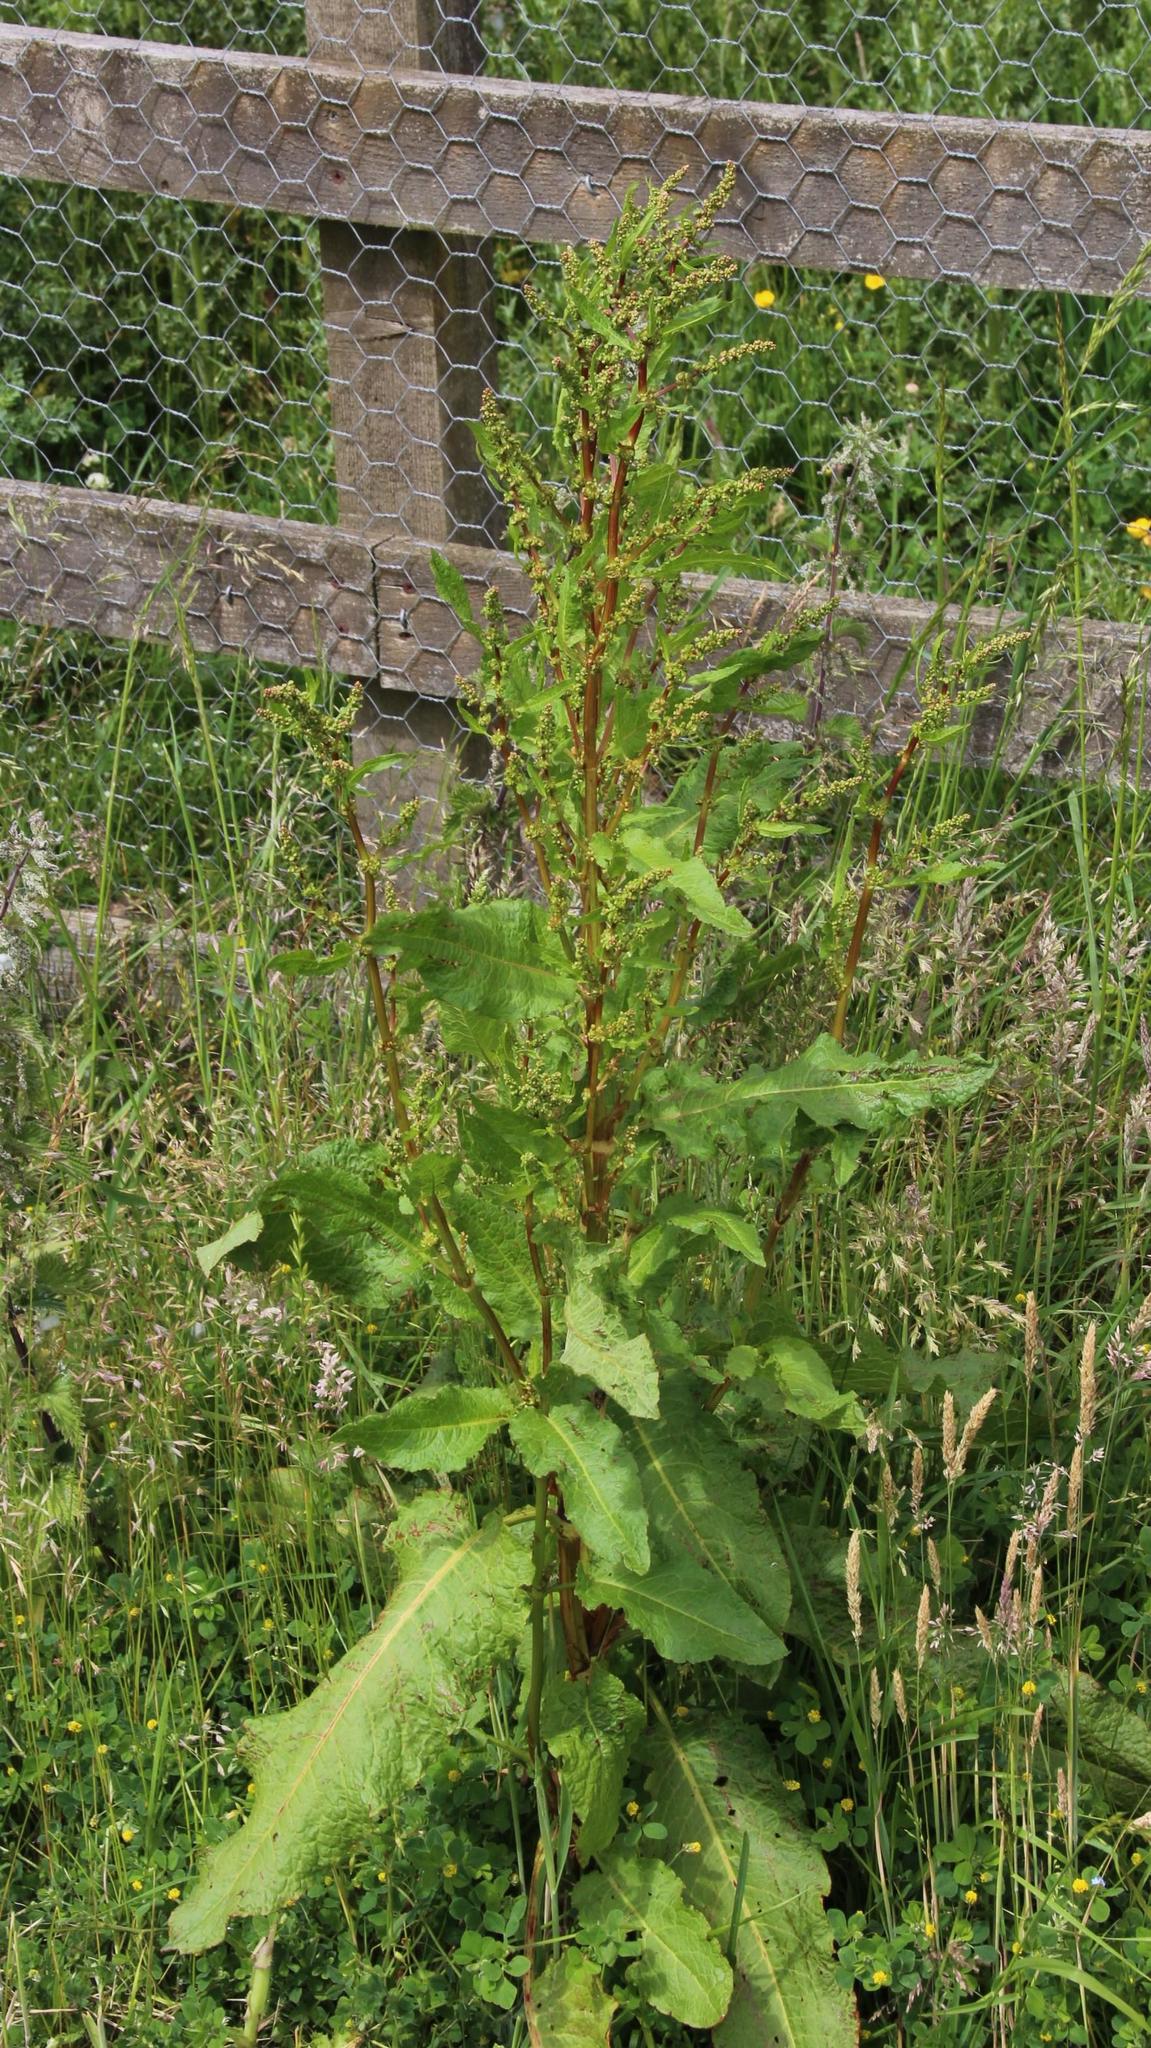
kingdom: Plantae
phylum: Tracheophyta
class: Magnoliopsida
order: Caryophyllales
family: Polygonaceae
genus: Rumex
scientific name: Rumex obtusifolius
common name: Bitter dock
